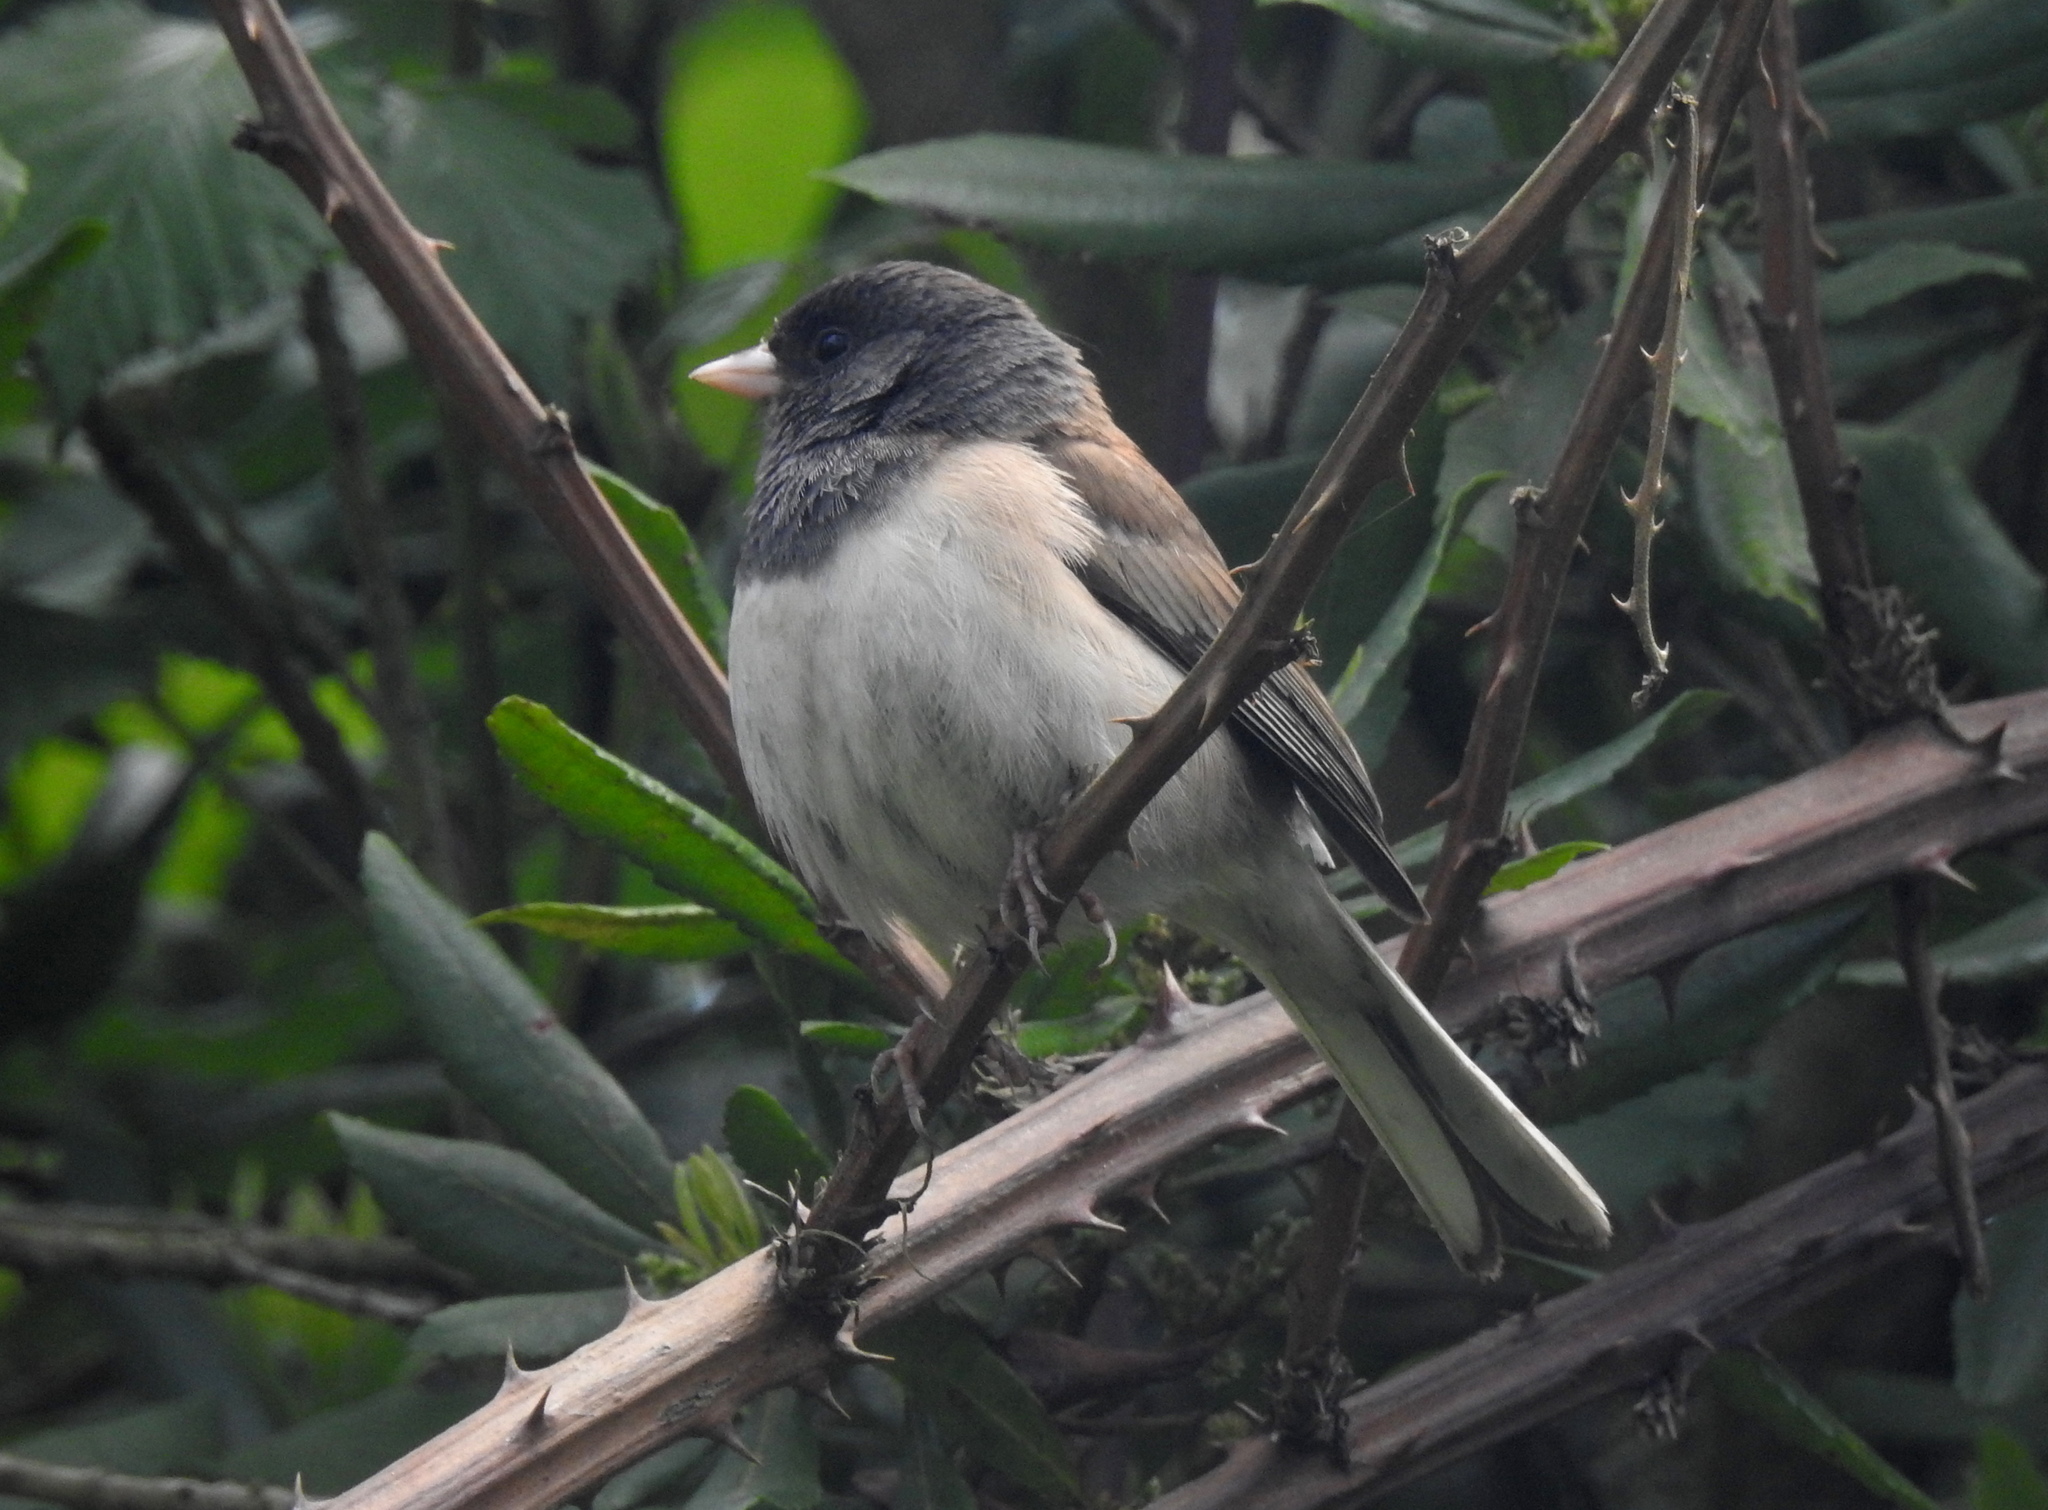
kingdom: Animalia
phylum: Chordata
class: Aves
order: Passeriformes
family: Passerellidae
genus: Junco
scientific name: Junco hyemalis
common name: Dark-eyed junco
